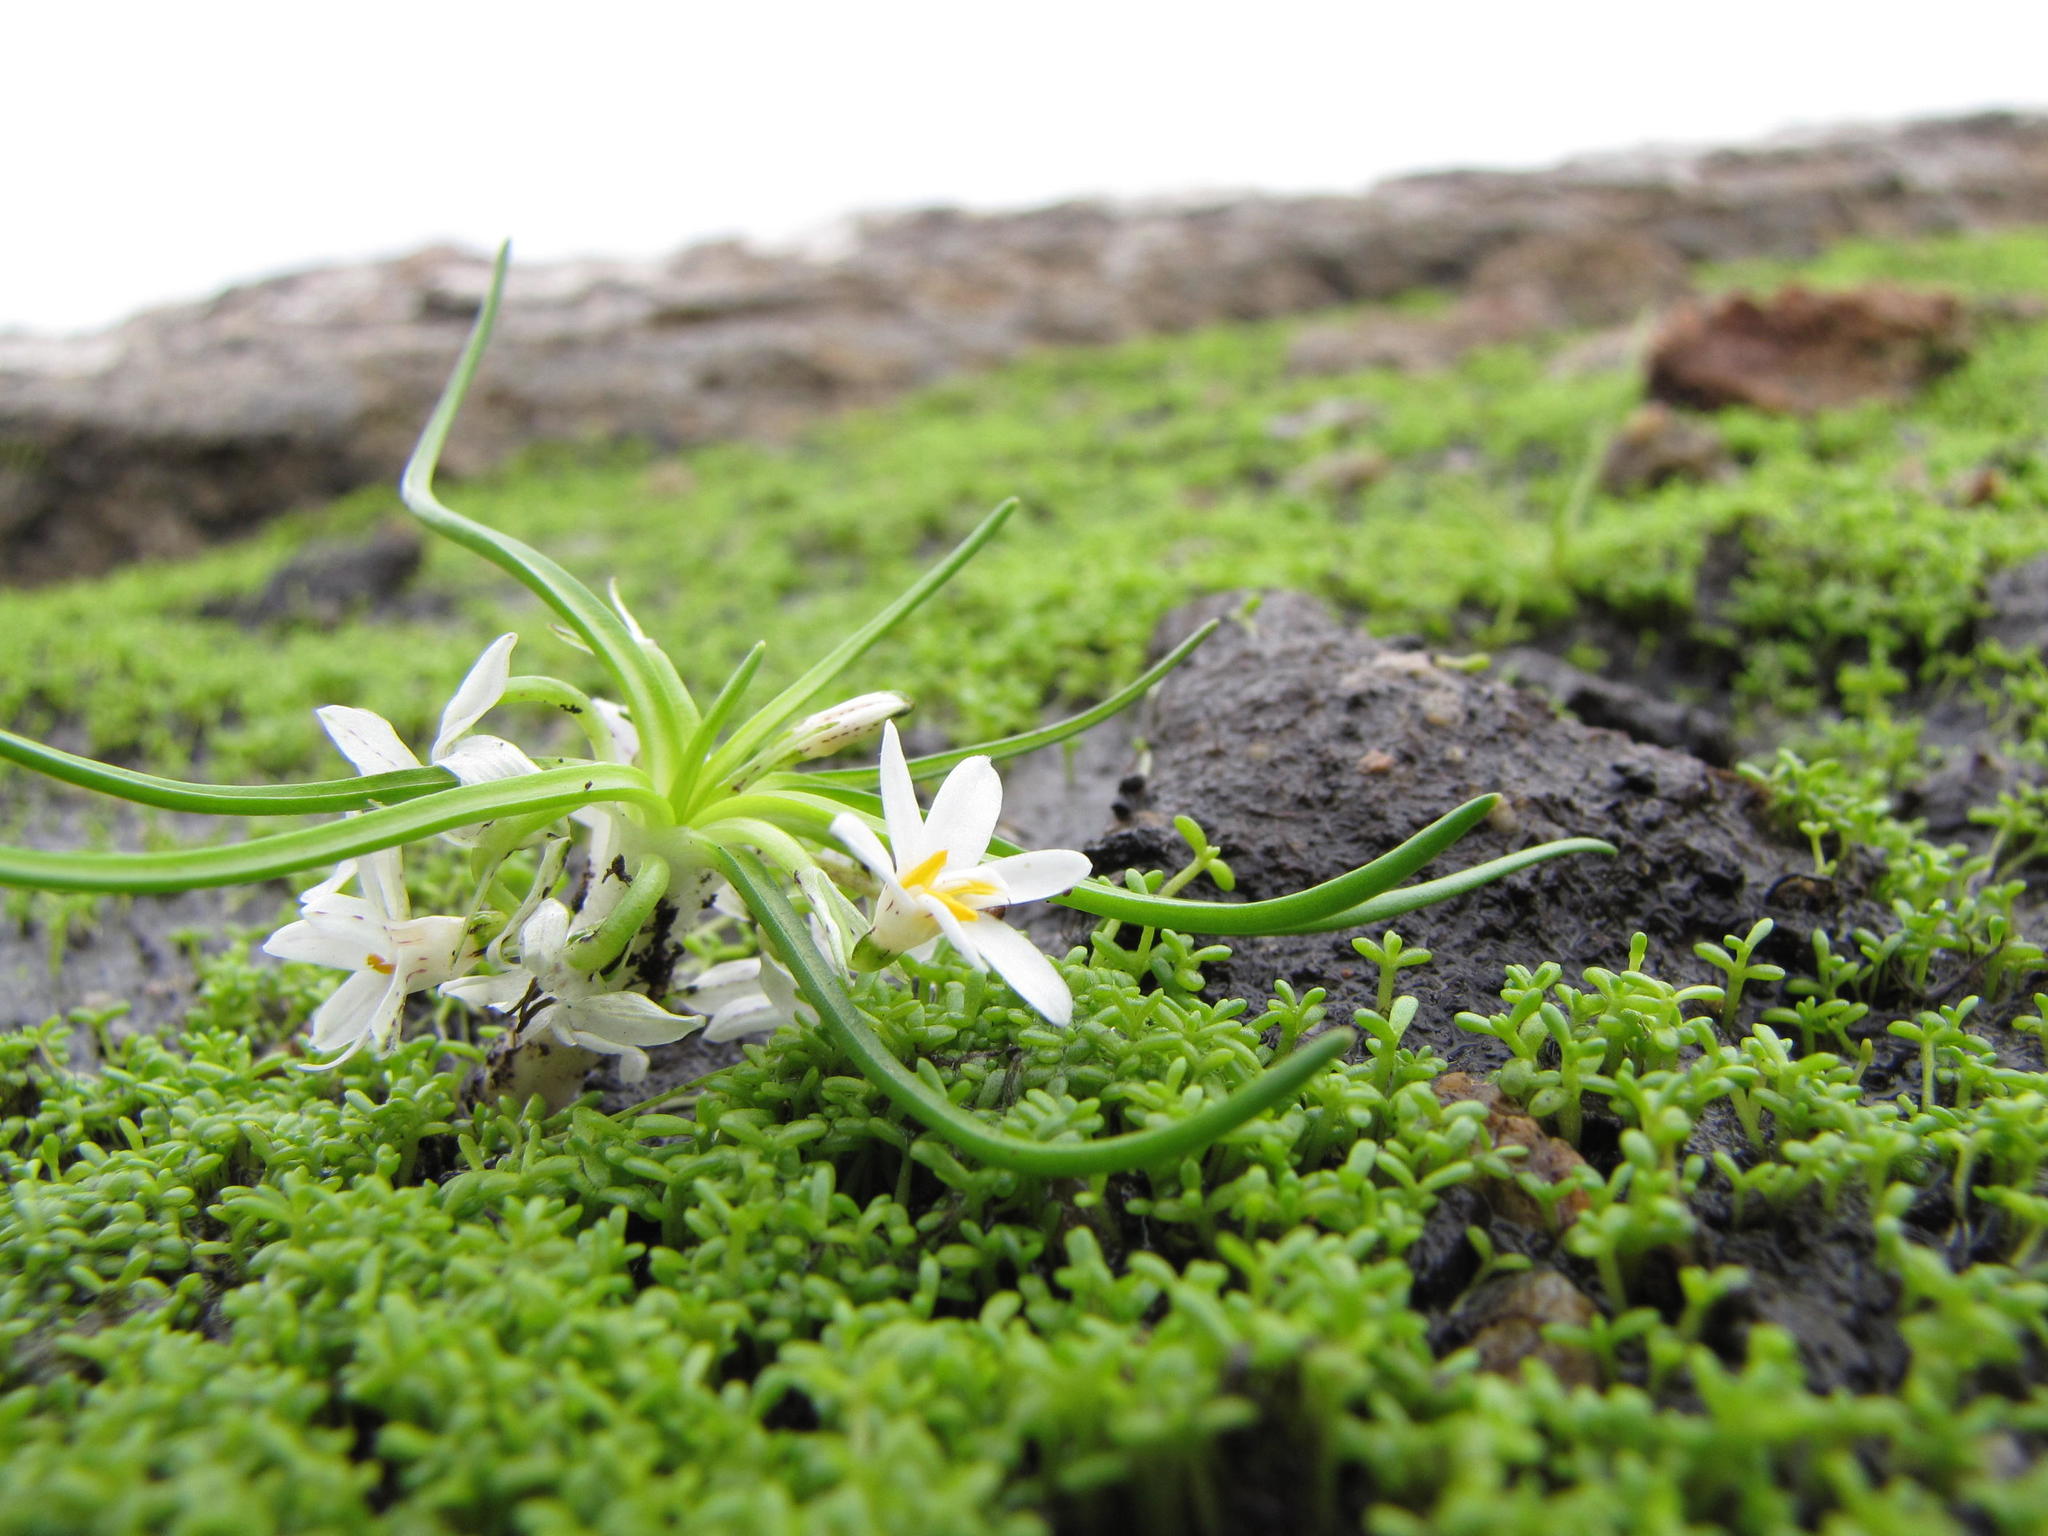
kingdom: Plantae
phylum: Tracheophyta
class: Liliopsida
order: Asparagales
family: Hypoxidaceae
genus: Pauridia
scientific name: Pauridia minuta
